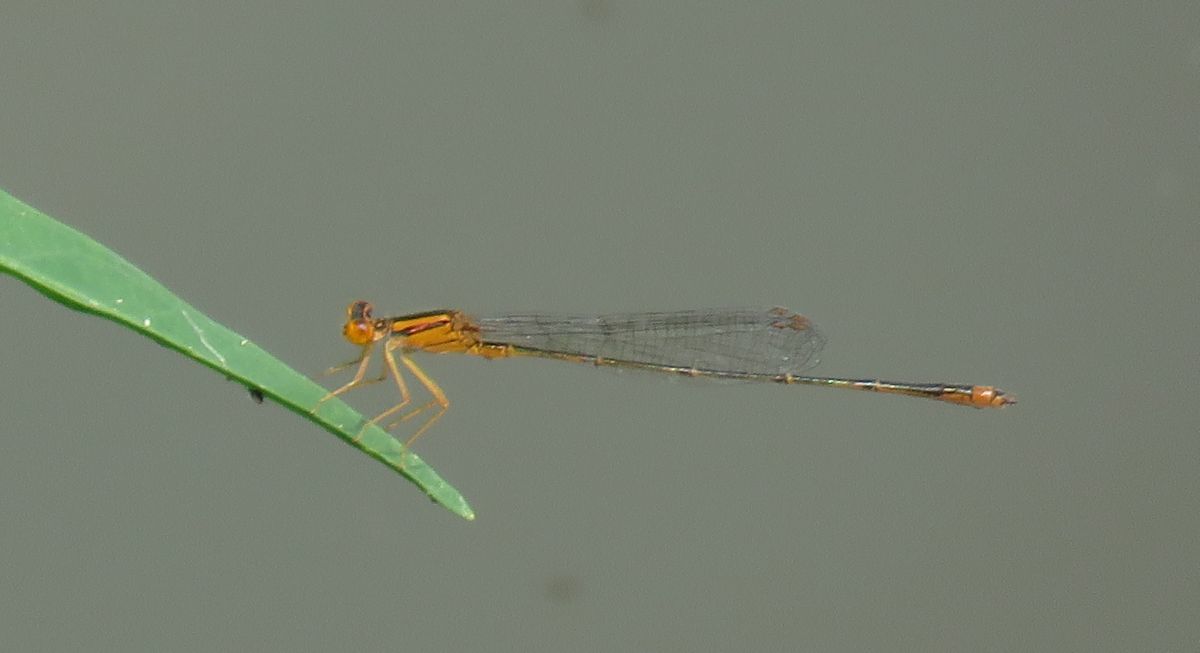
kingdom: Animalia
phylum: Arthropoda
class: Insecta
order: Odonata
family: Coenagrionidae
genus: Enallagma
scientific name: Enallagma signatum
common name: Orange bluet
